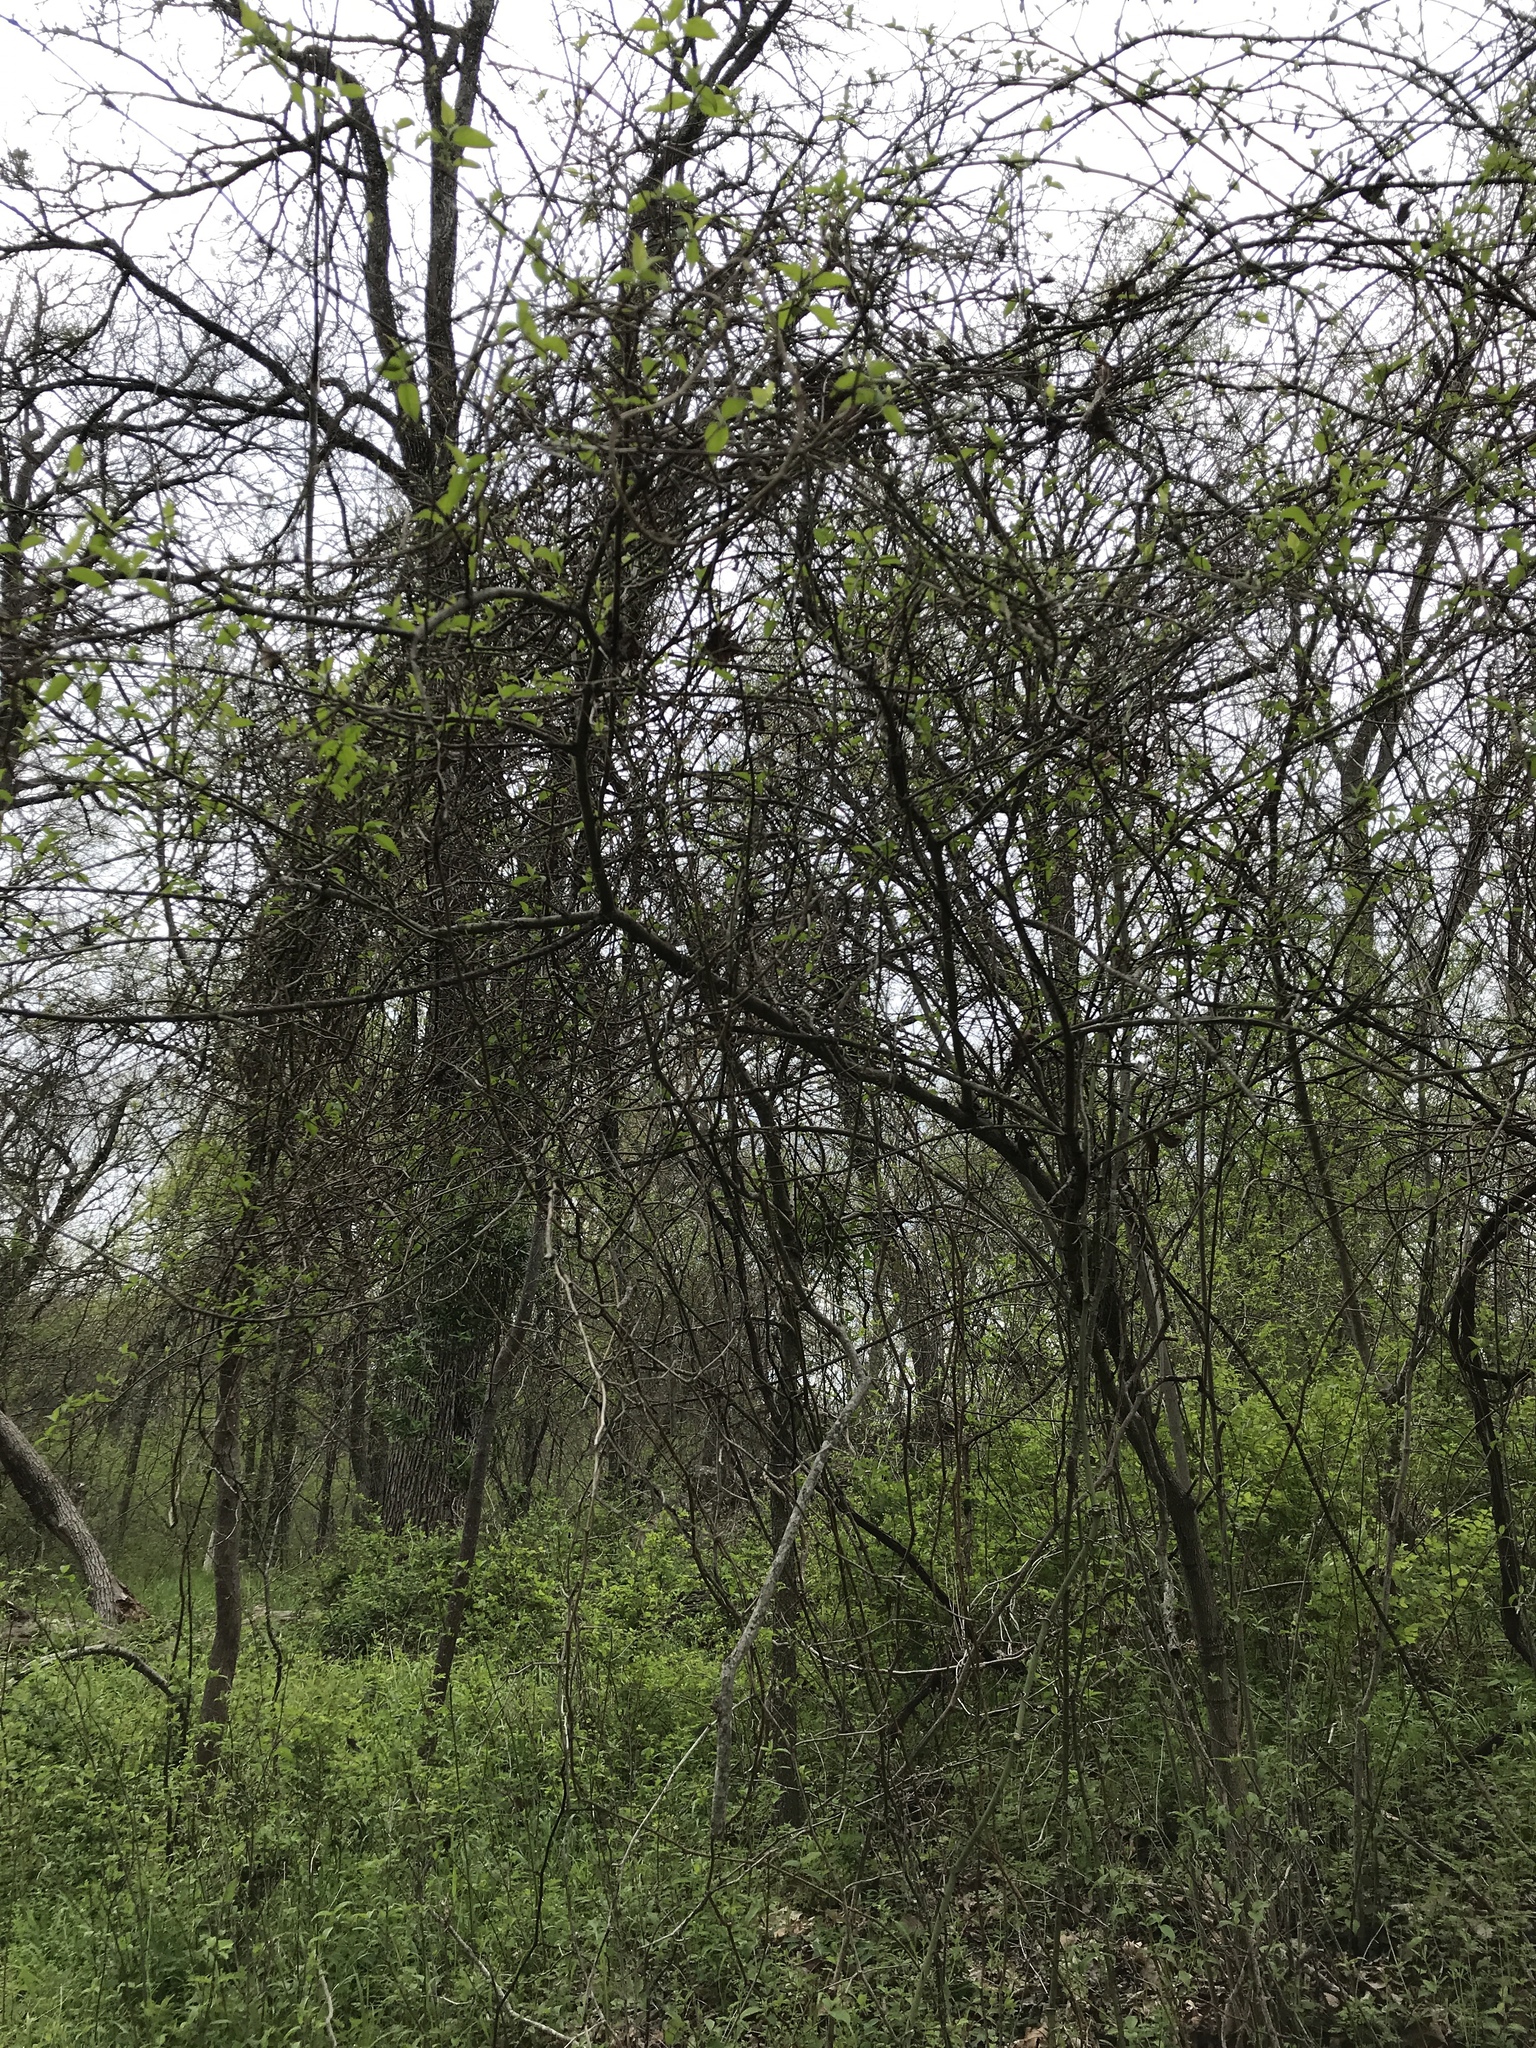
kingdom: Plantae
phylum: Tracheophyta
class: Magnoliopsida
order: Cornales
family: Cornaceae
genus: Cornus
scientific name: Cornus drummondii
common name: Rough-leaf dogwood
